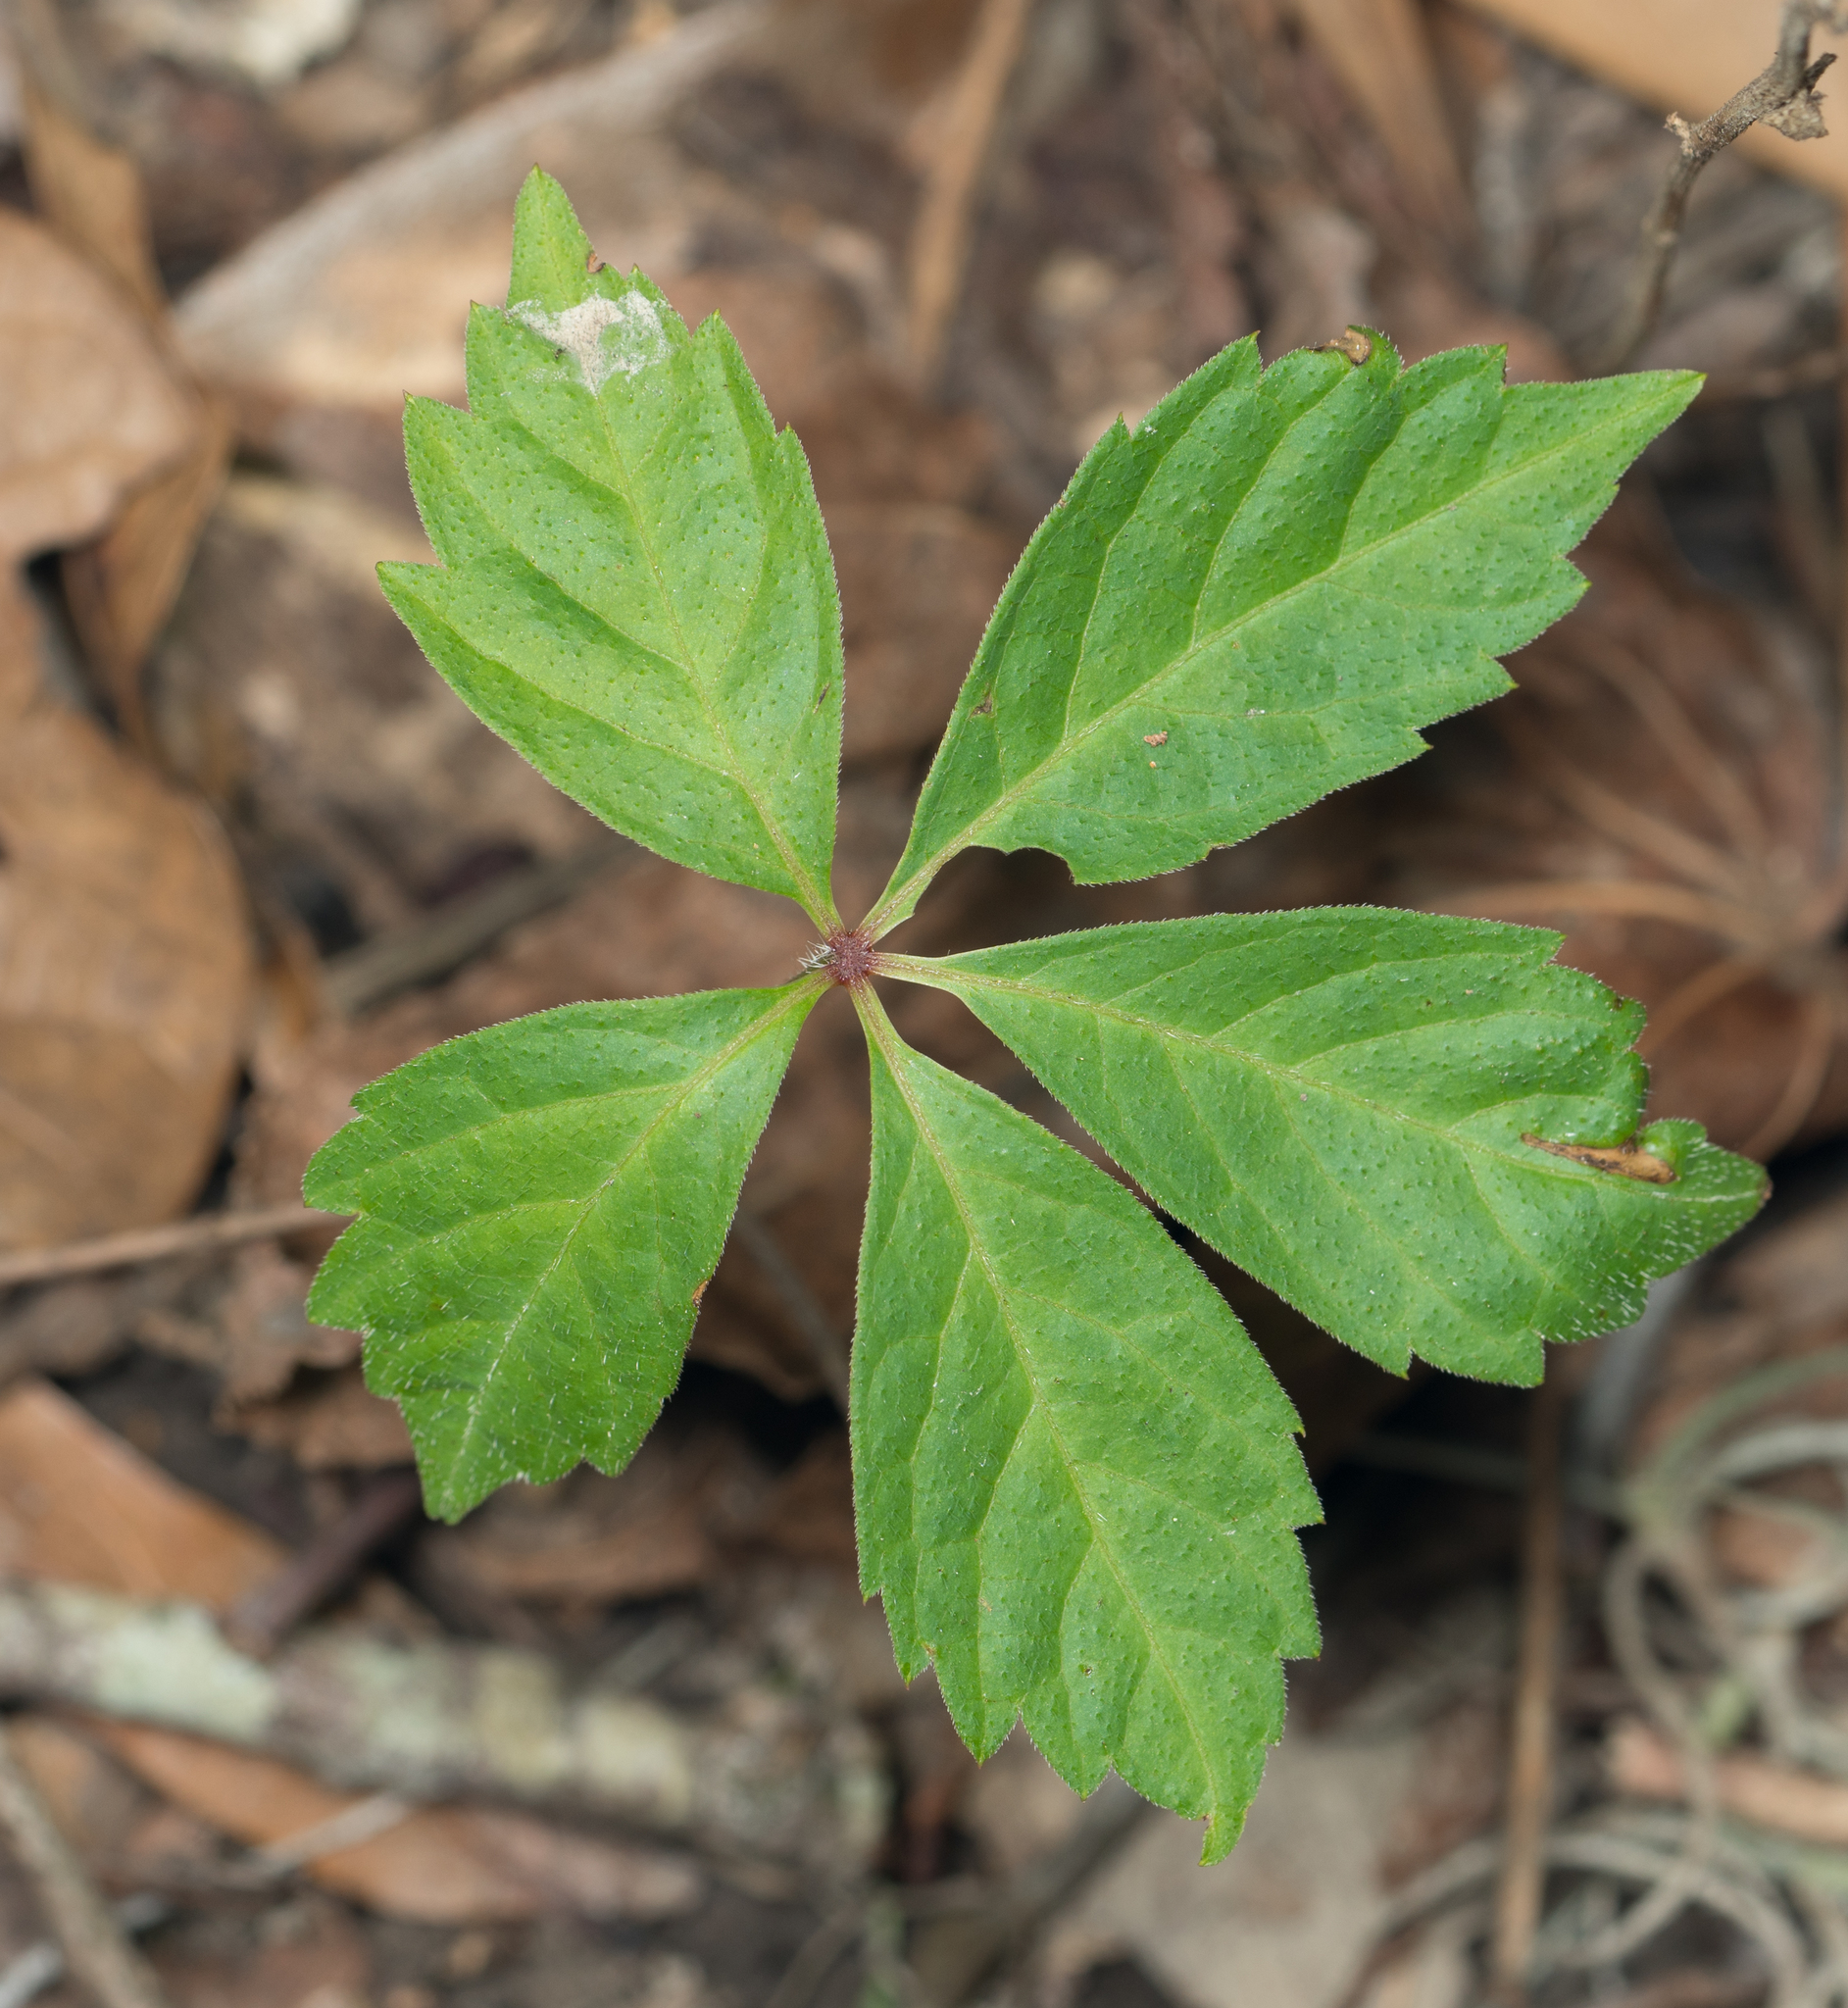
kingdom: Plantae
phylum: Tracheophyta
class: Magnoliopsida
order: Vitales
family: Vitaceae
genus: Parthenocissus
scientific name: Parthenocissus quinquefolia
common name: Virginia-creeper
